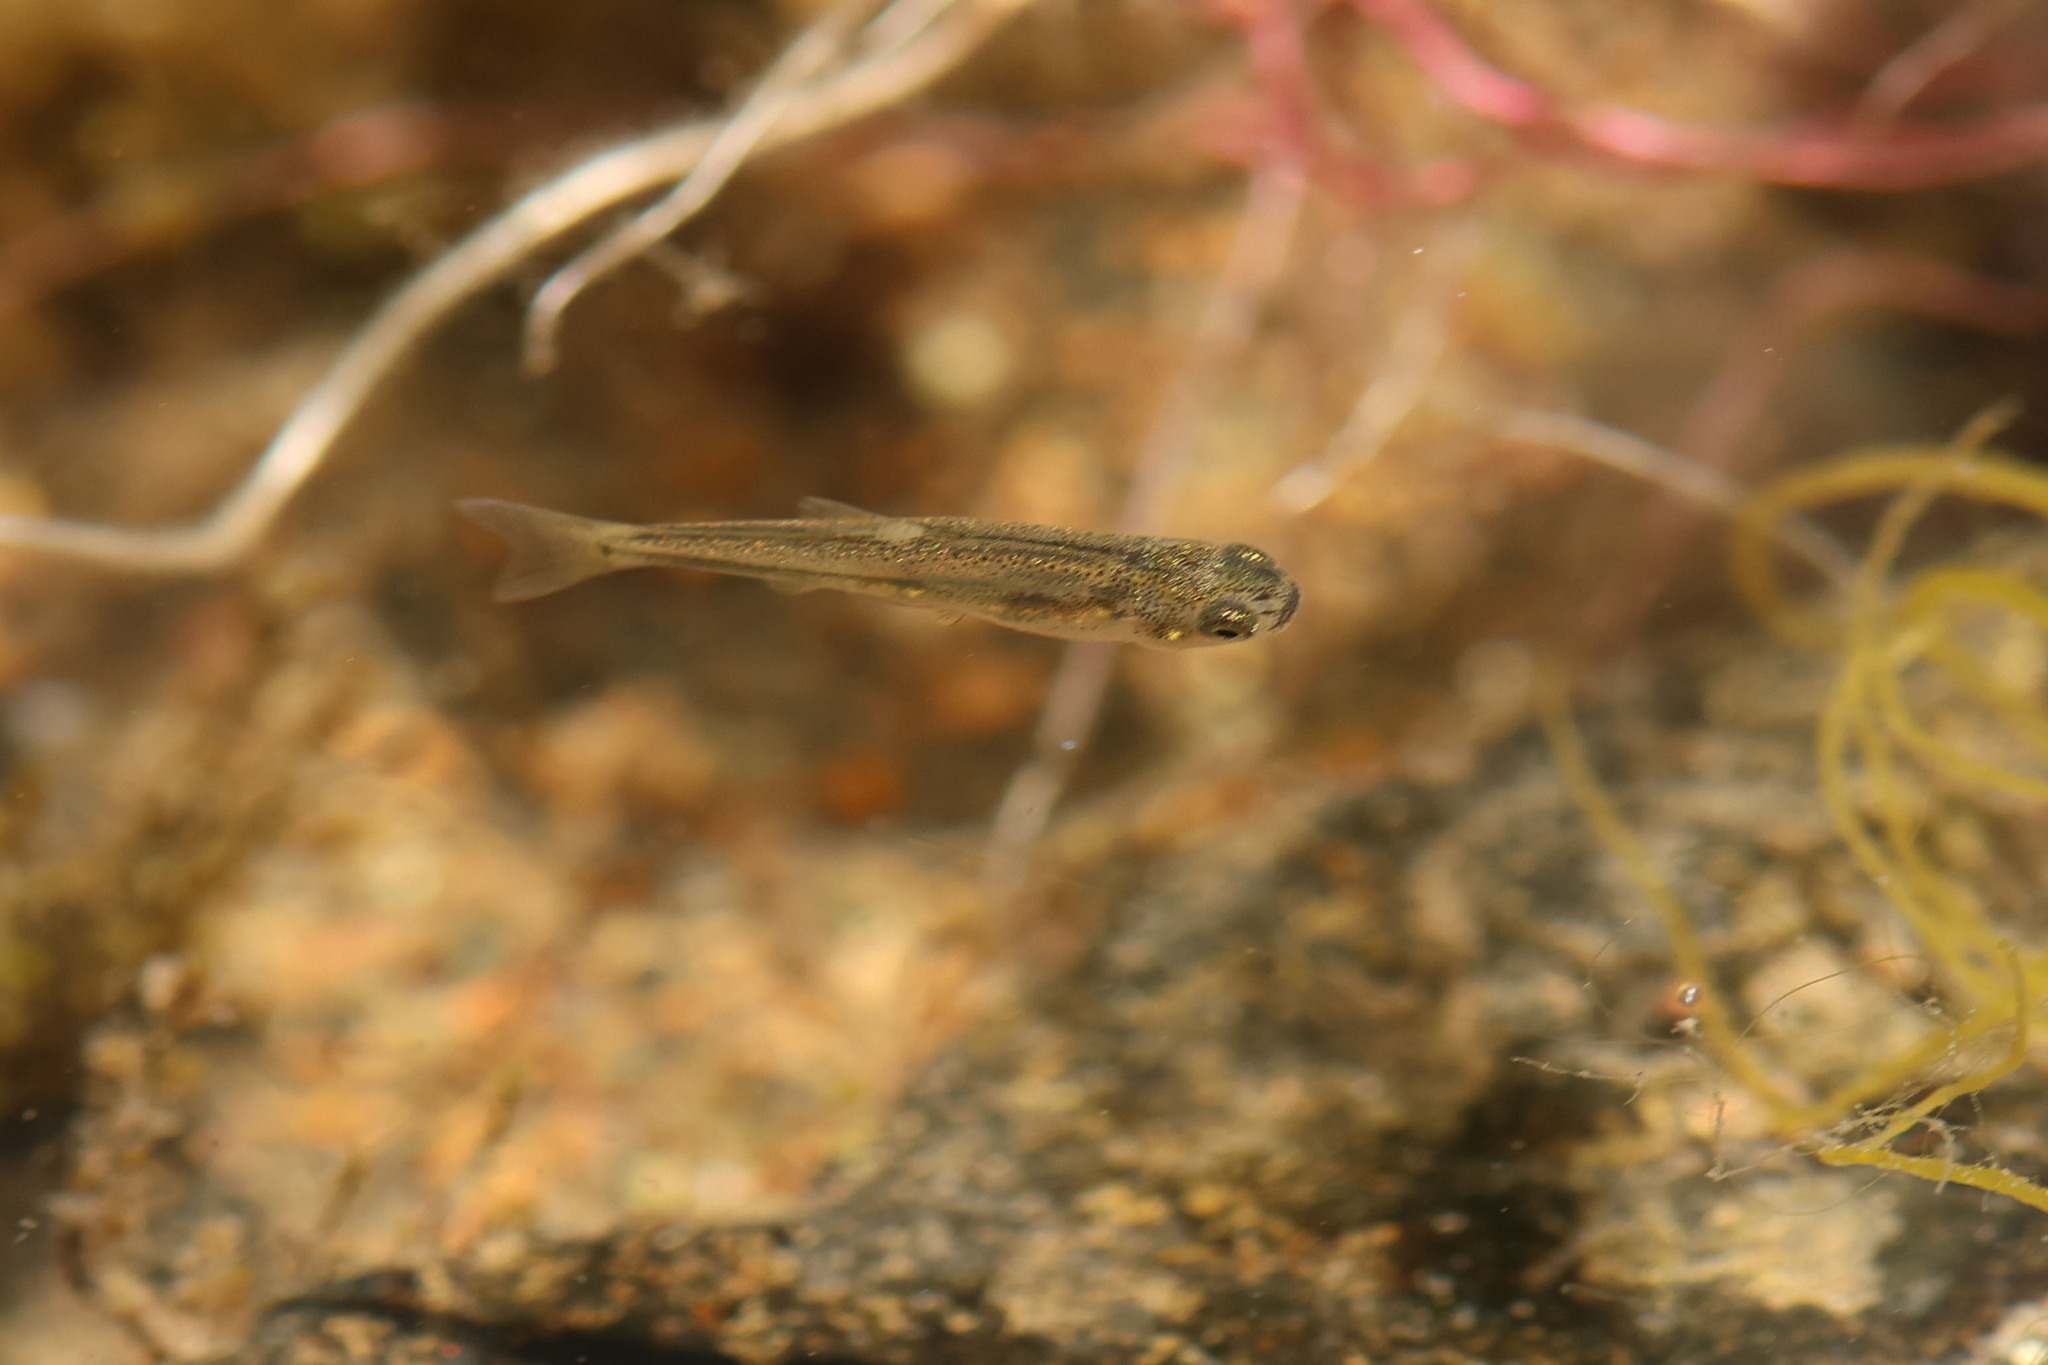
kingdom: Animalia
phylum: Chordata
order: Cypriniformes
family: Cyprinidae
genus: Hesperoleucus
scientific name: Hesperoleucus symmetricus
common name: California roach
